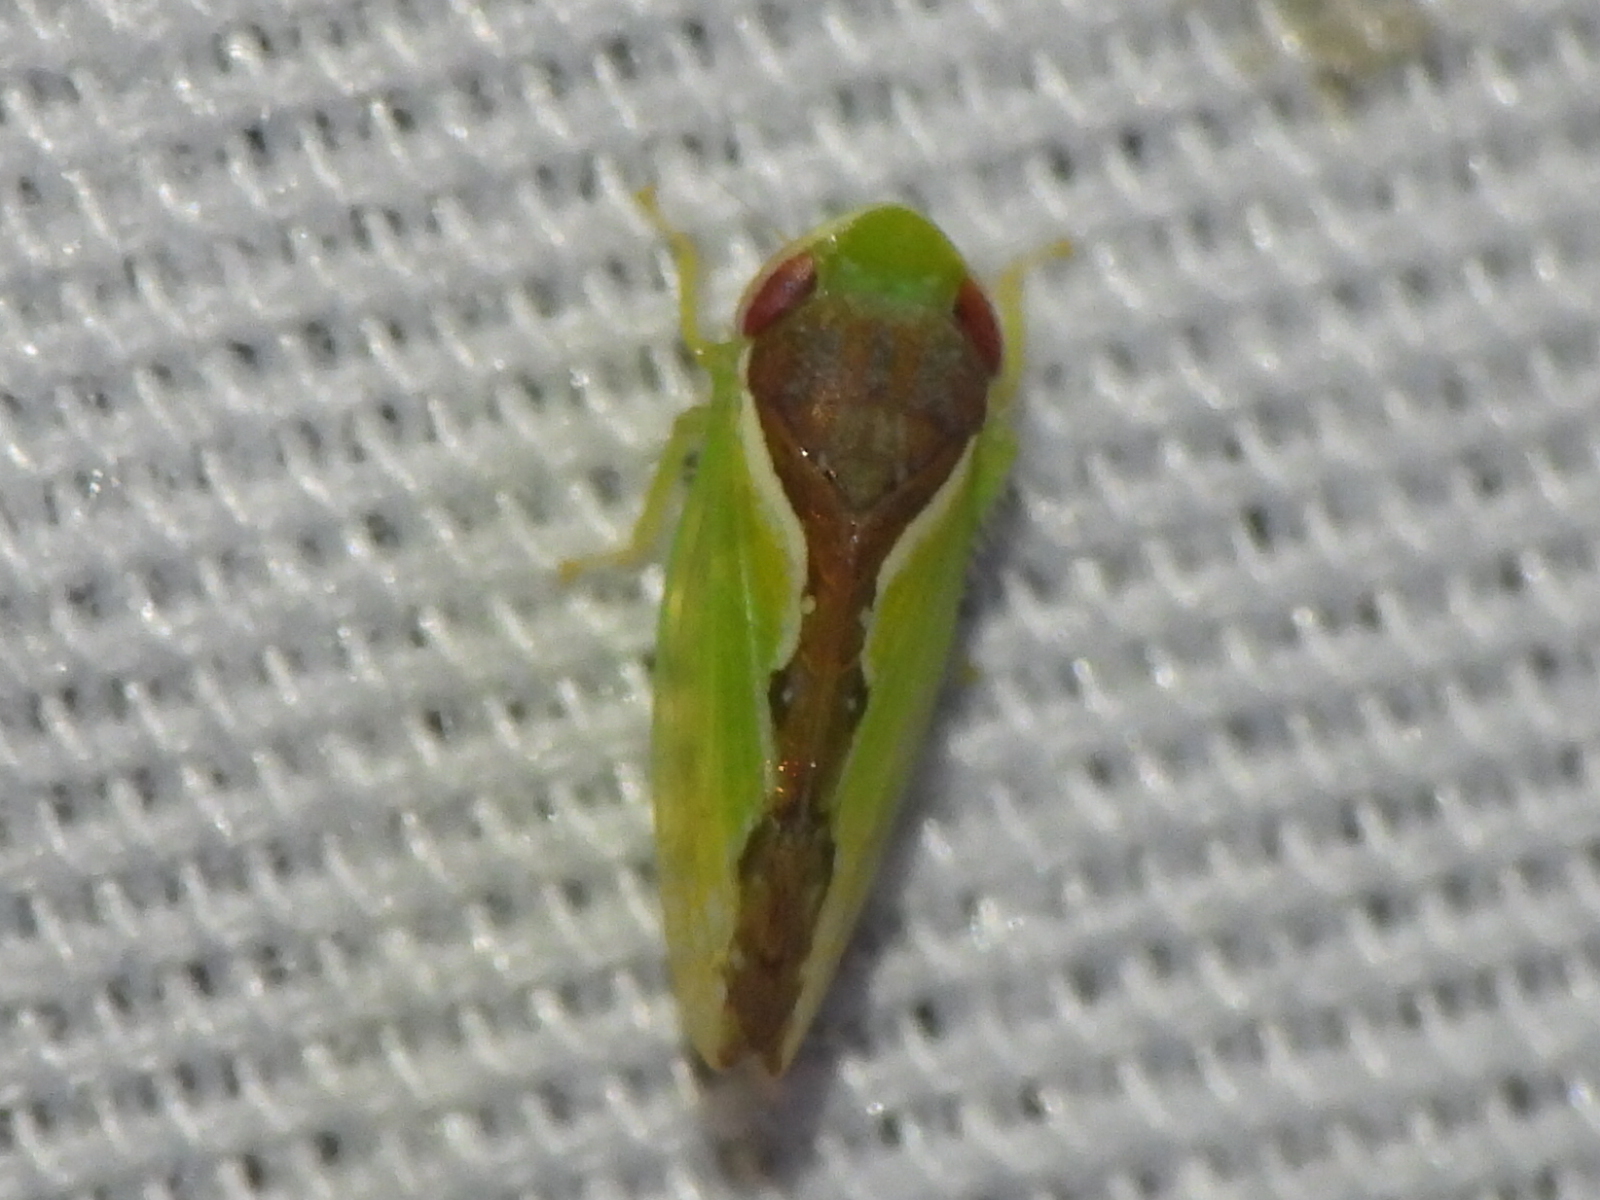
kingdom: Animalia
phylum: Arthropoda
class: Insecta
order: Hemiptera
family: Cicadellidae
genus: Omansobara ing
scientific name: Omansobara ing Omansobara palliolata
